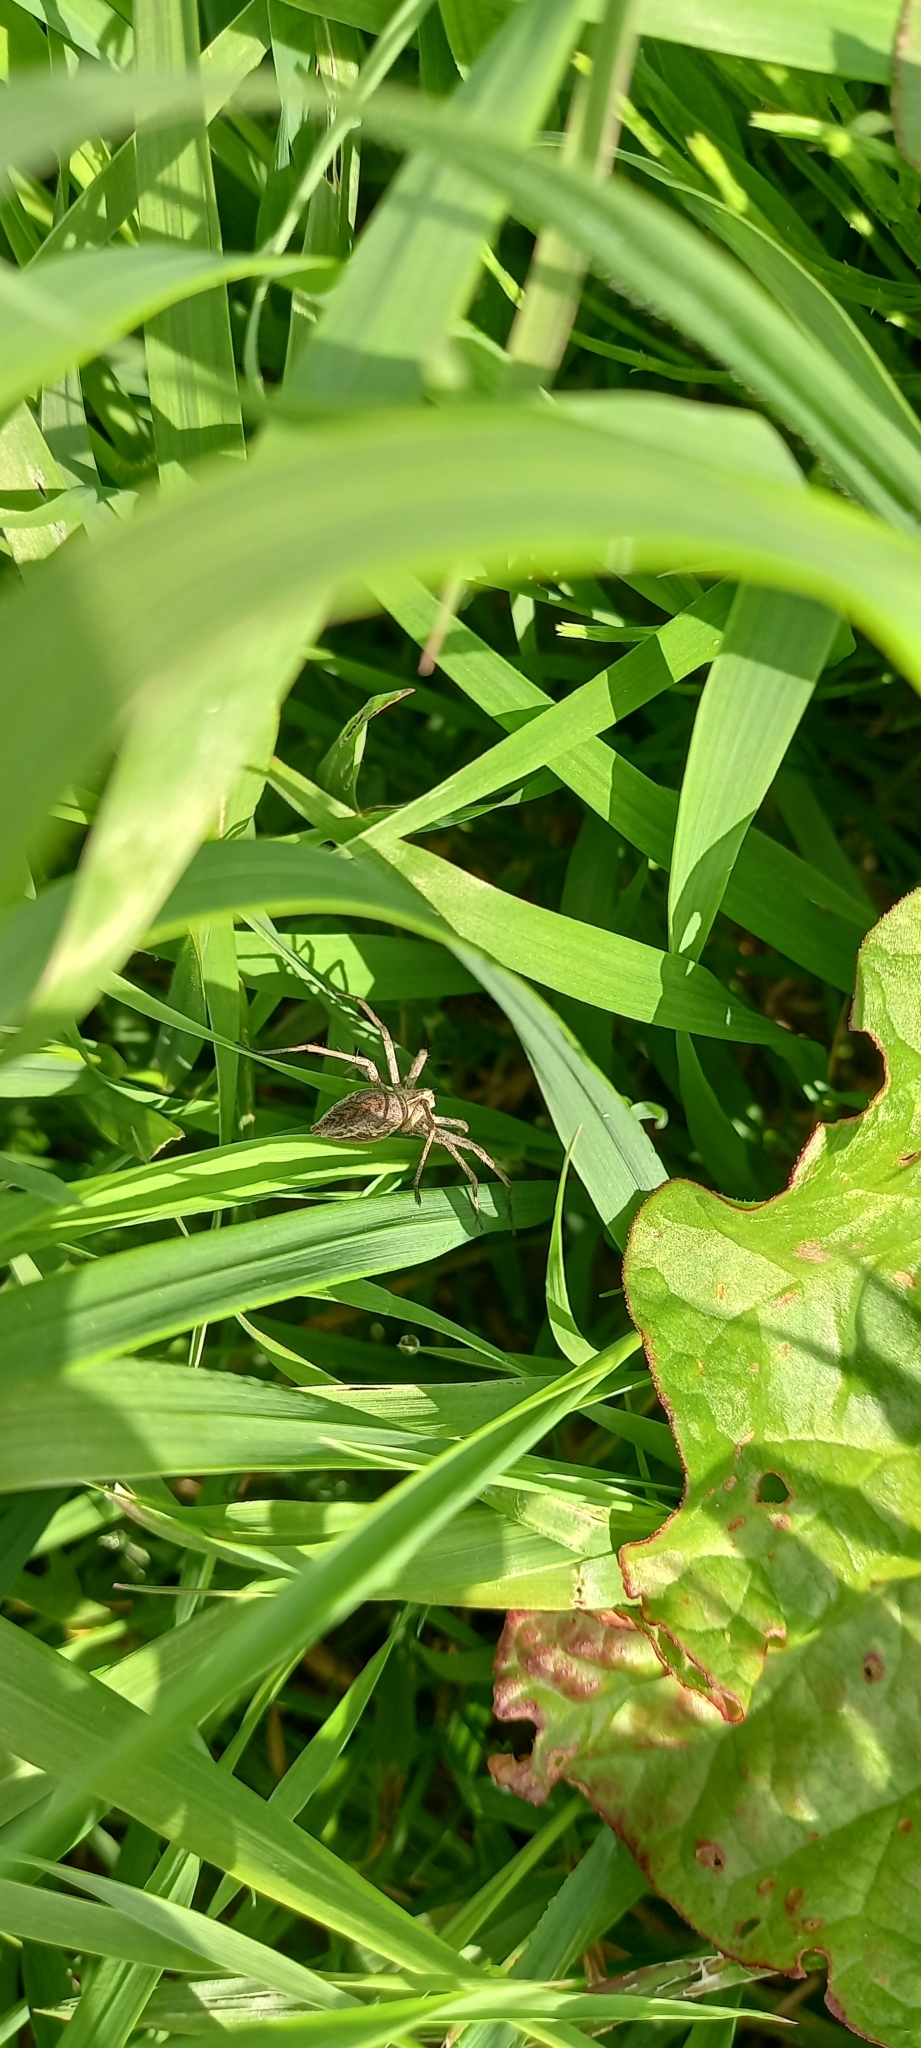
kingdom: Animalia
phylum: Arthropoda
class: Arachnida
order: Araneae
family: Pisauridae
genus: Pisaura
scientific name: Pisaura mirabilis
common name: Tent spider
